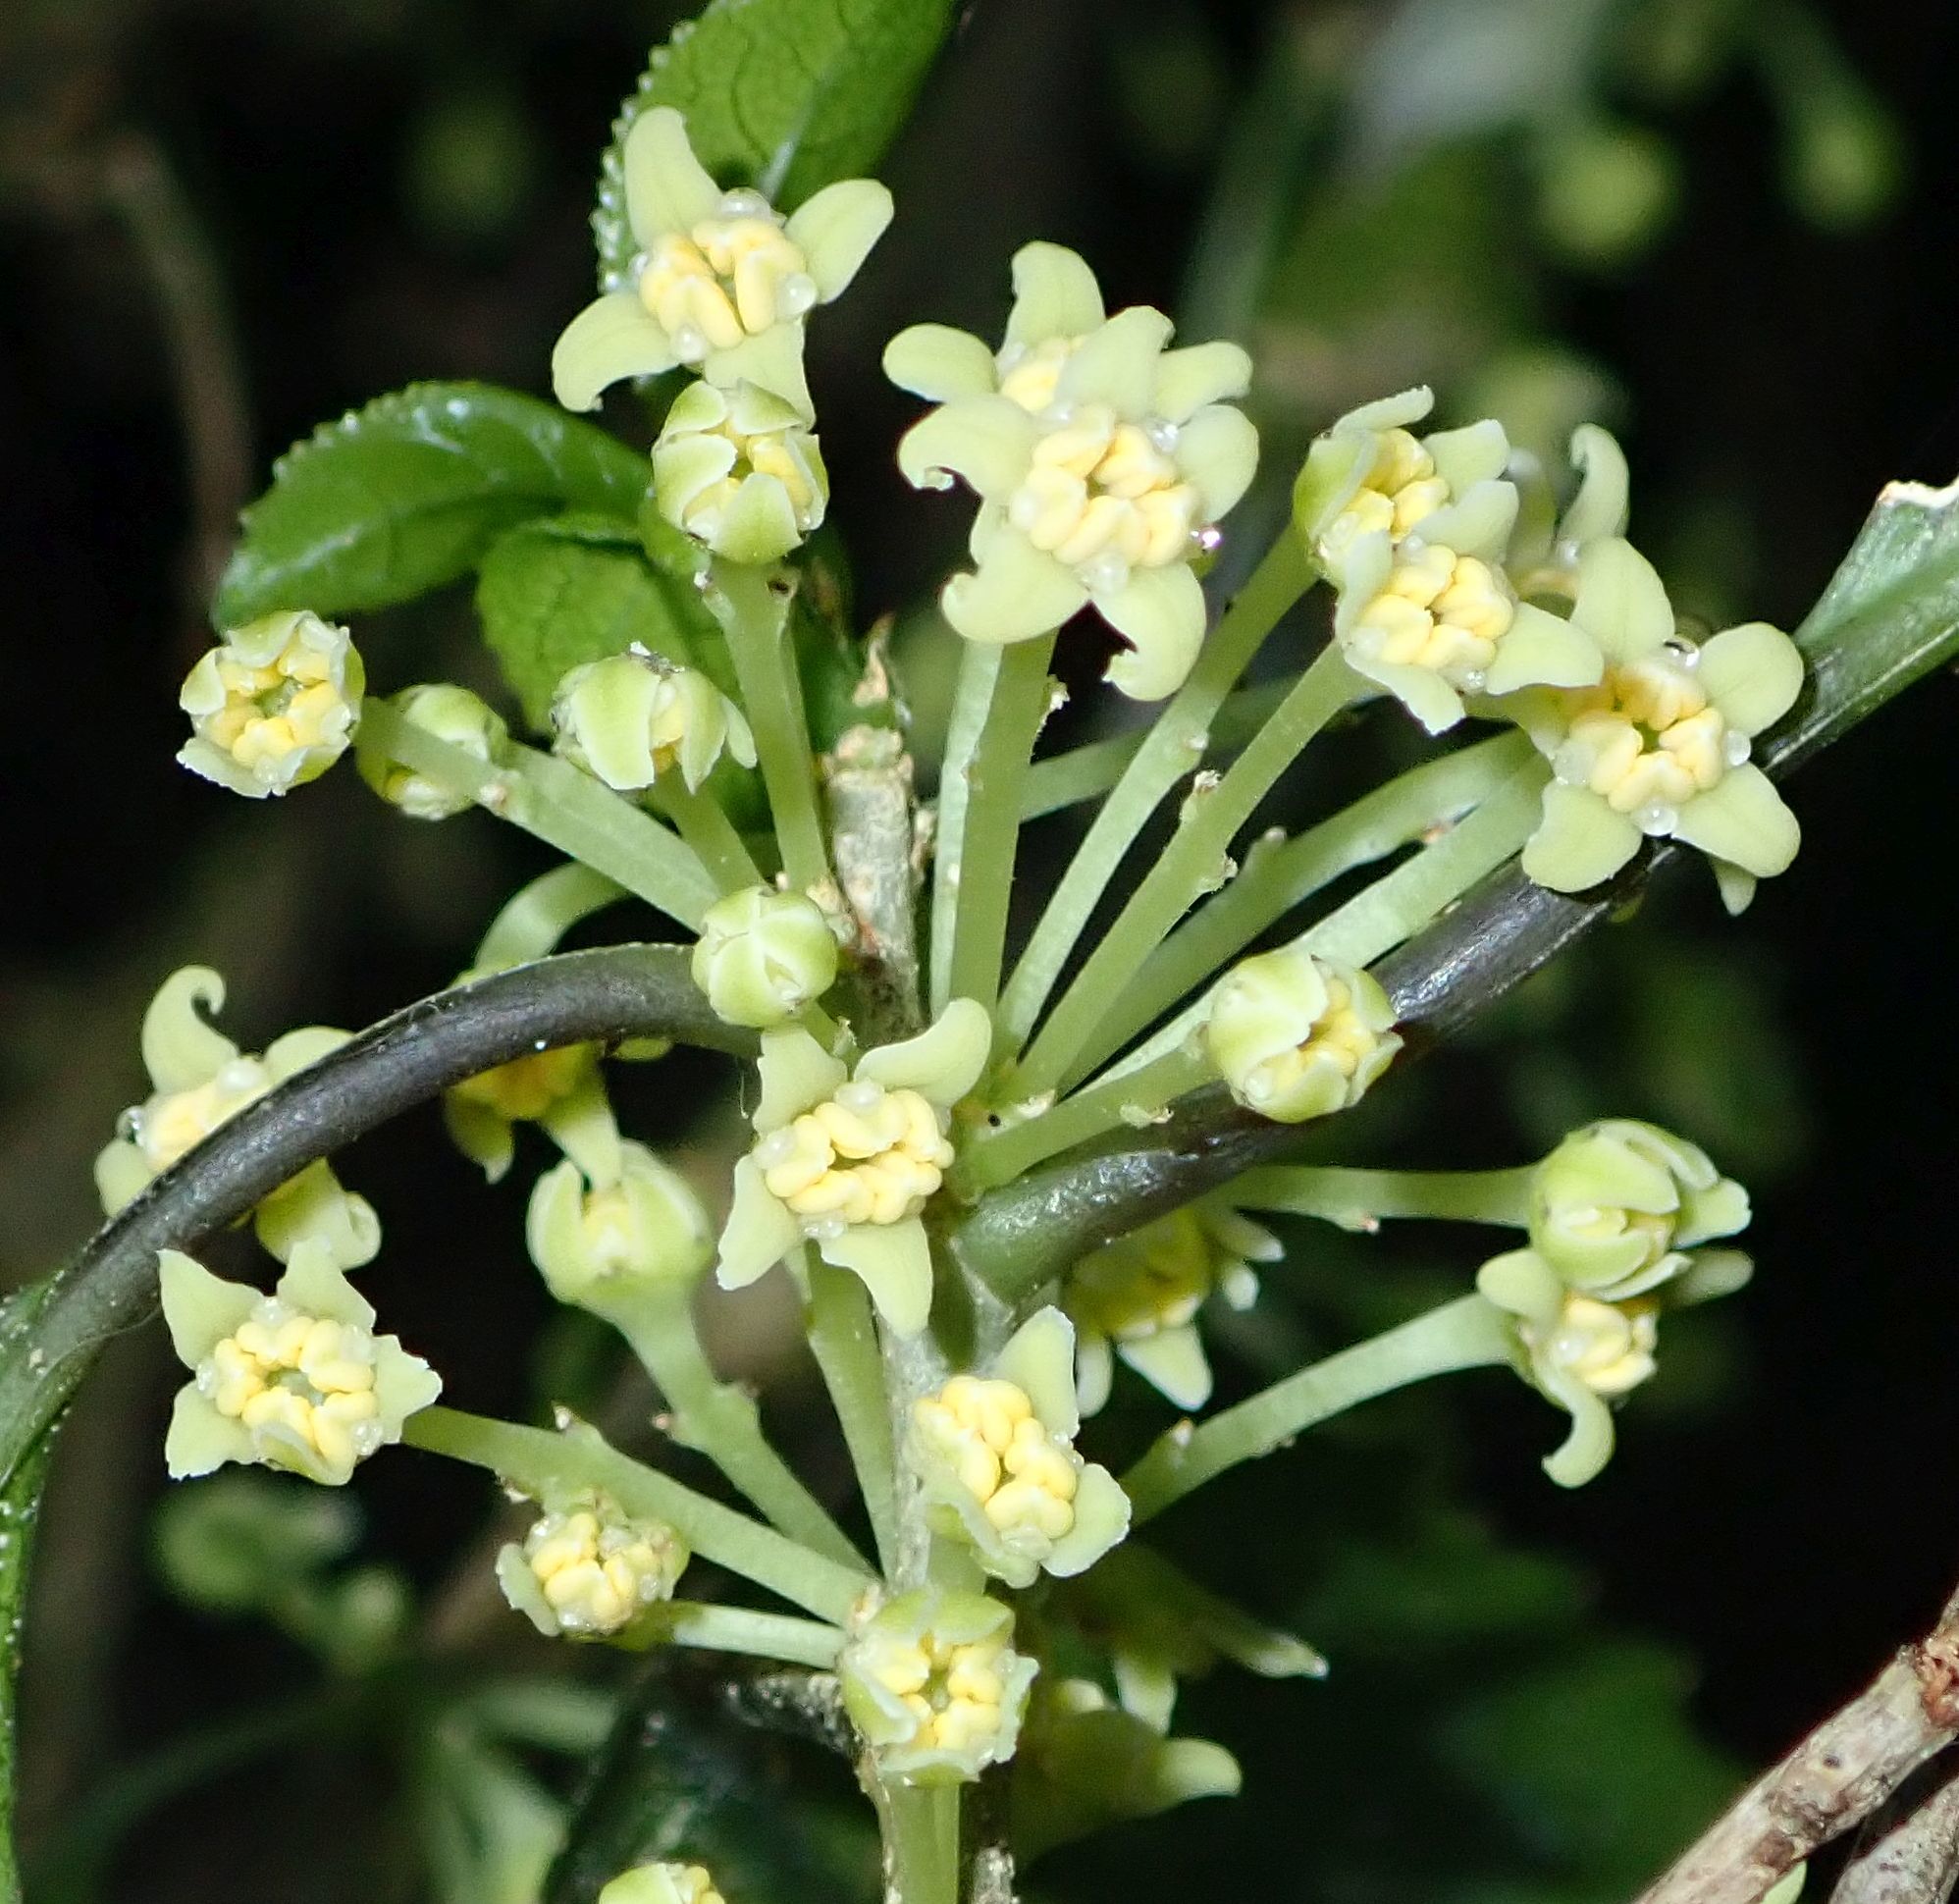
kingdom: Plantae
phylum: Tracheophyta
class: Magnoliopsida
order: Malpighiales
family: Violaceae
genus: Melicytus
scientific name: Melicytus ramiflorus
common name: Mahoe
